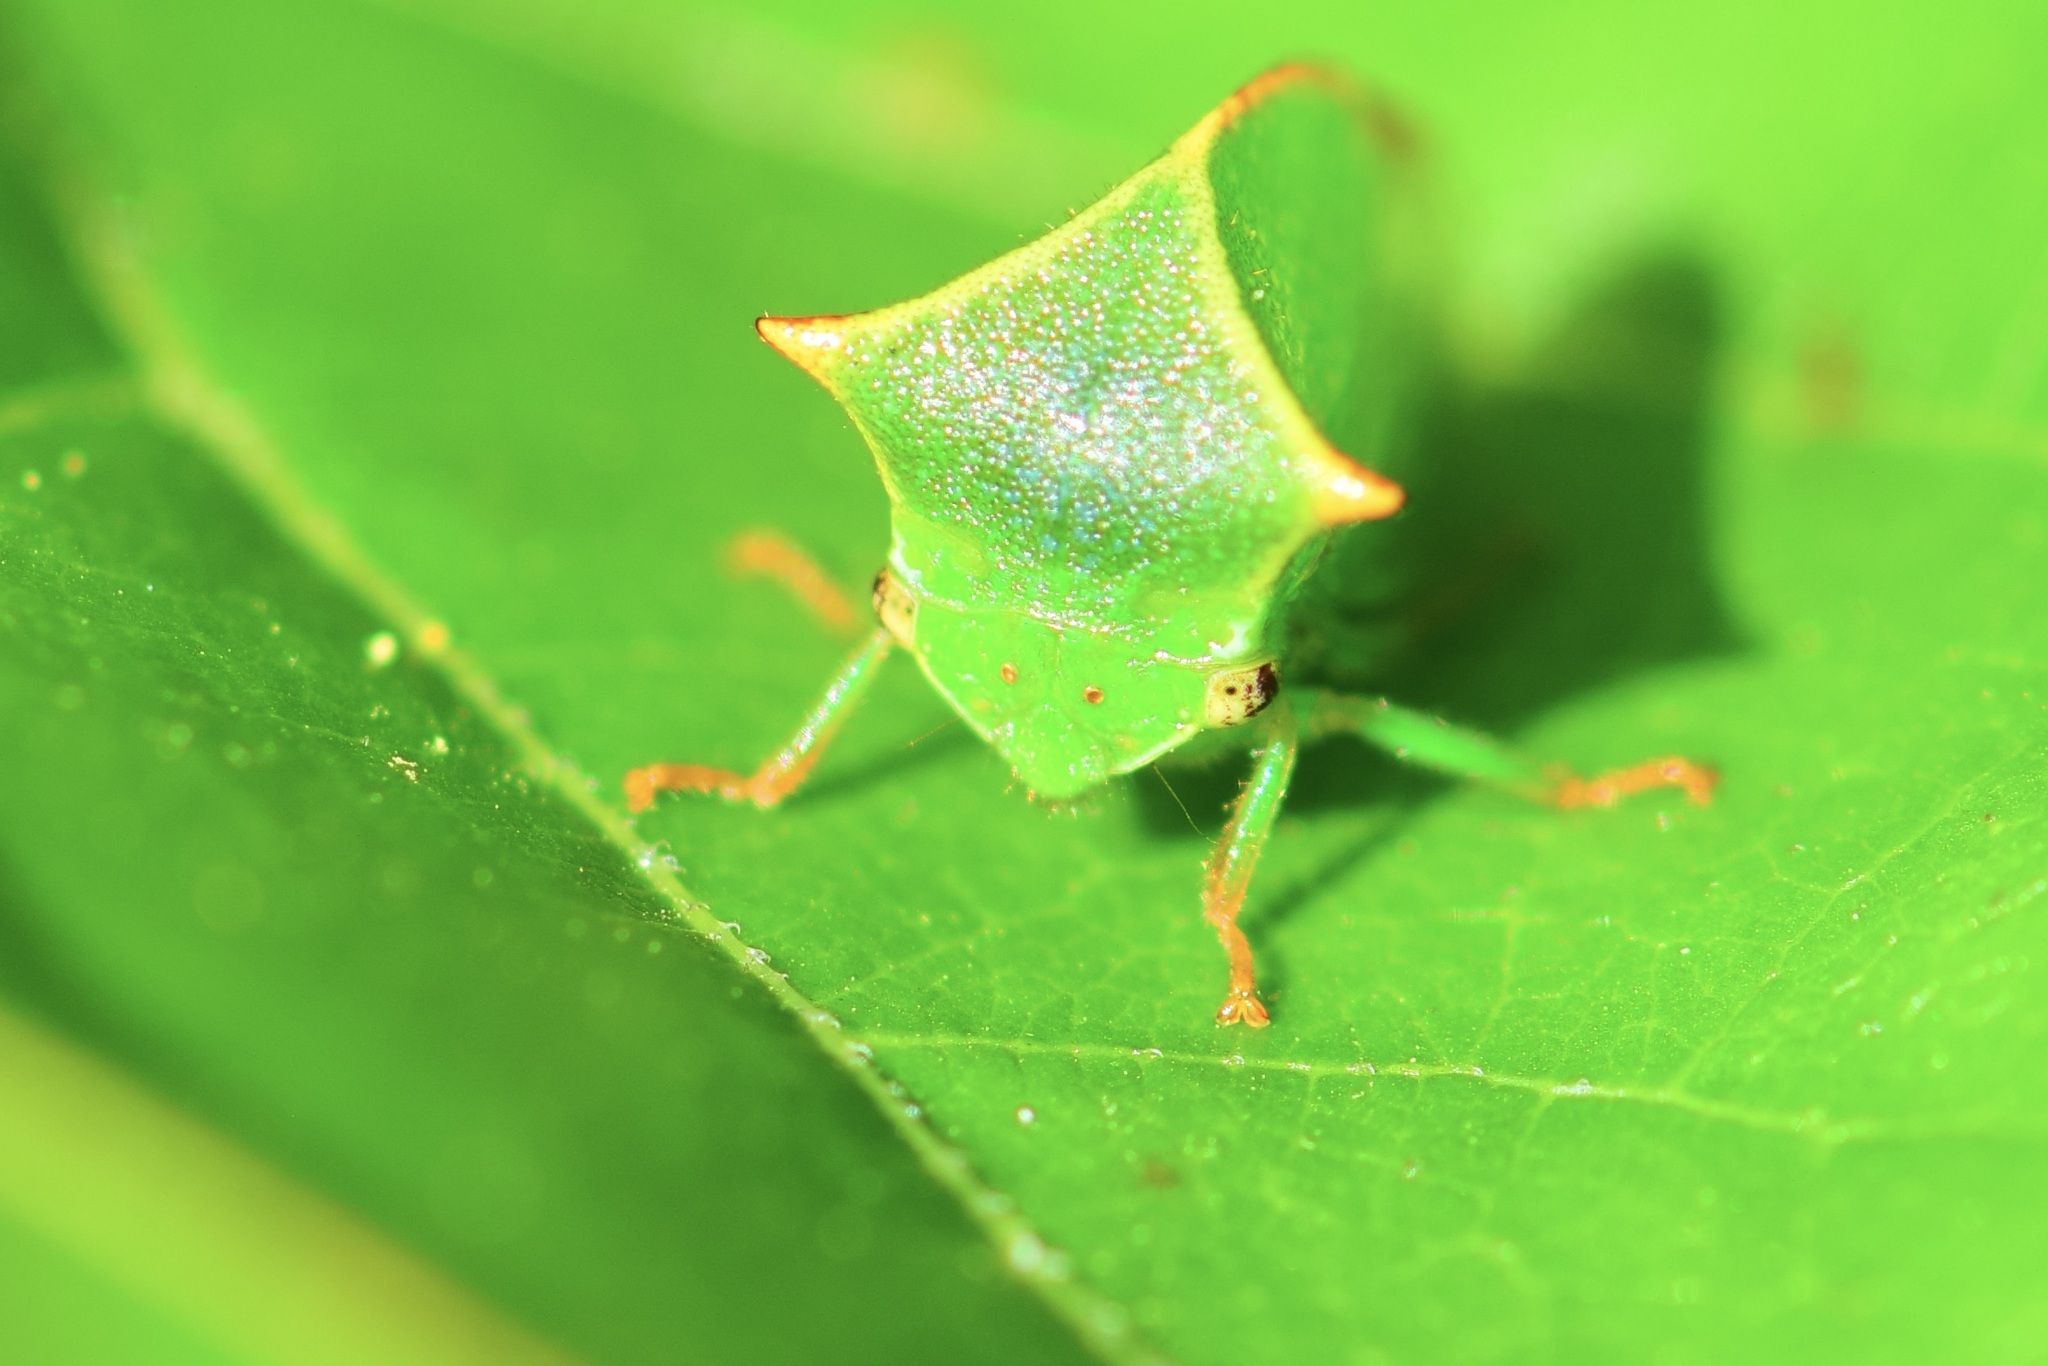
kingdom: Animalia
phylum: Arthropoda
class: Insecta
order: Hemiptera
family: Membracidae
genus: Stictocephala
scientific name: Stictocephala bisonia
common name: American buffalo treehopper
